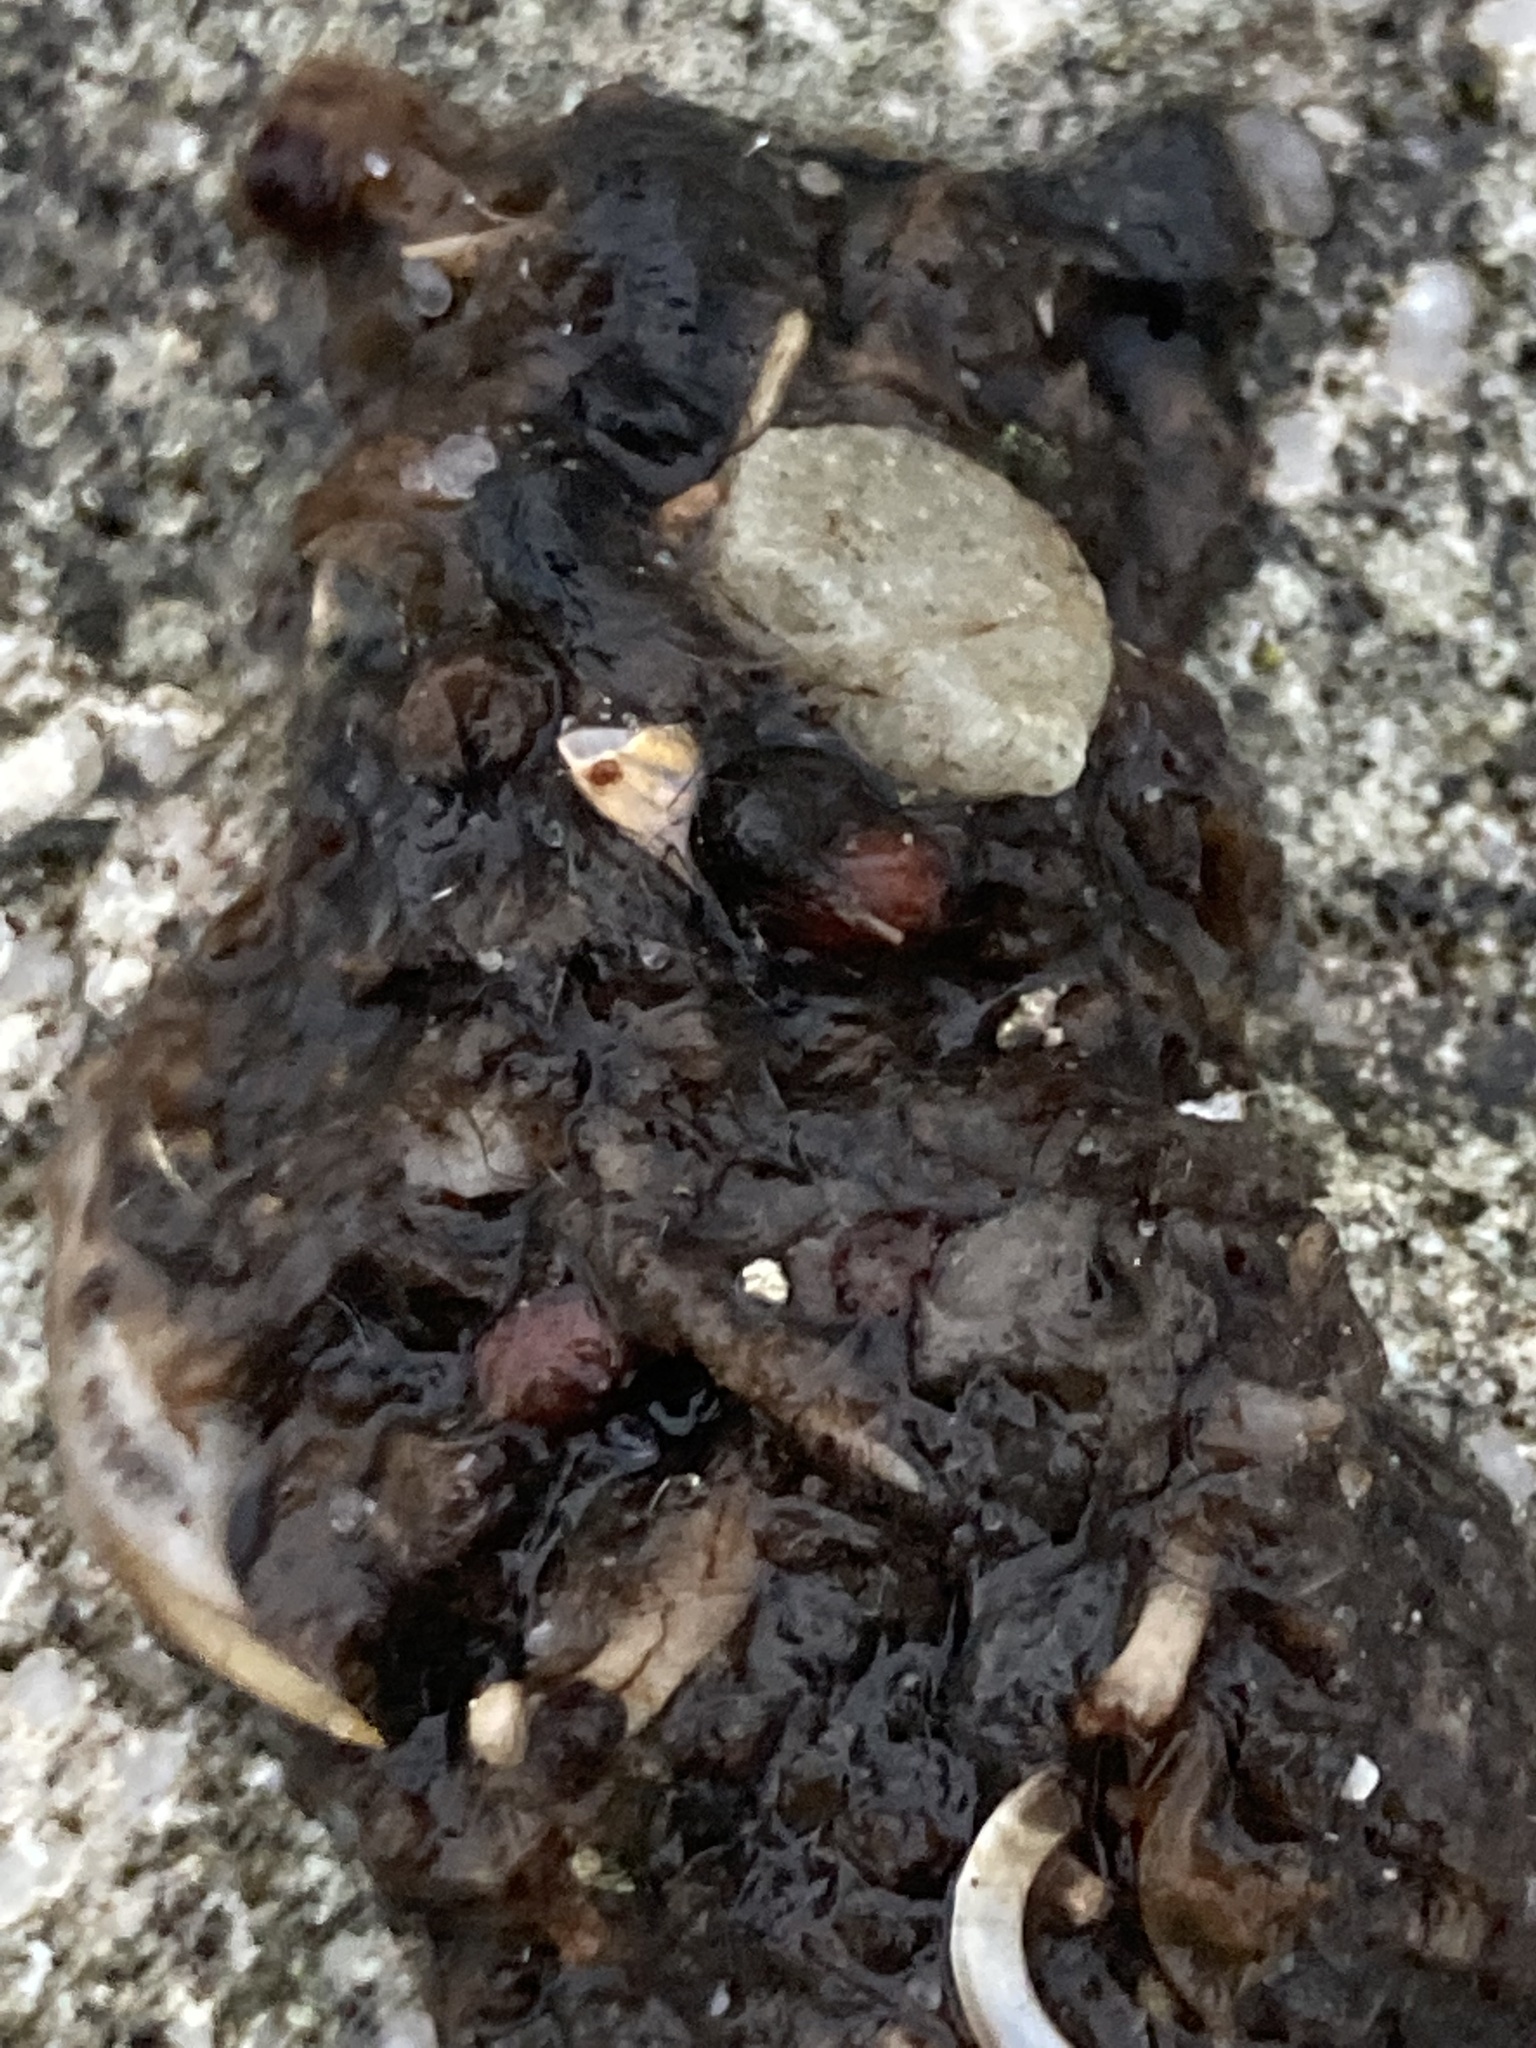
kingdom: Animalia
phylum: Chordata
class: Mammalia
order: Carnivora
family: Mustelidae
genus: Lutra
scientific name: Lutra lutra
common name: European otter
